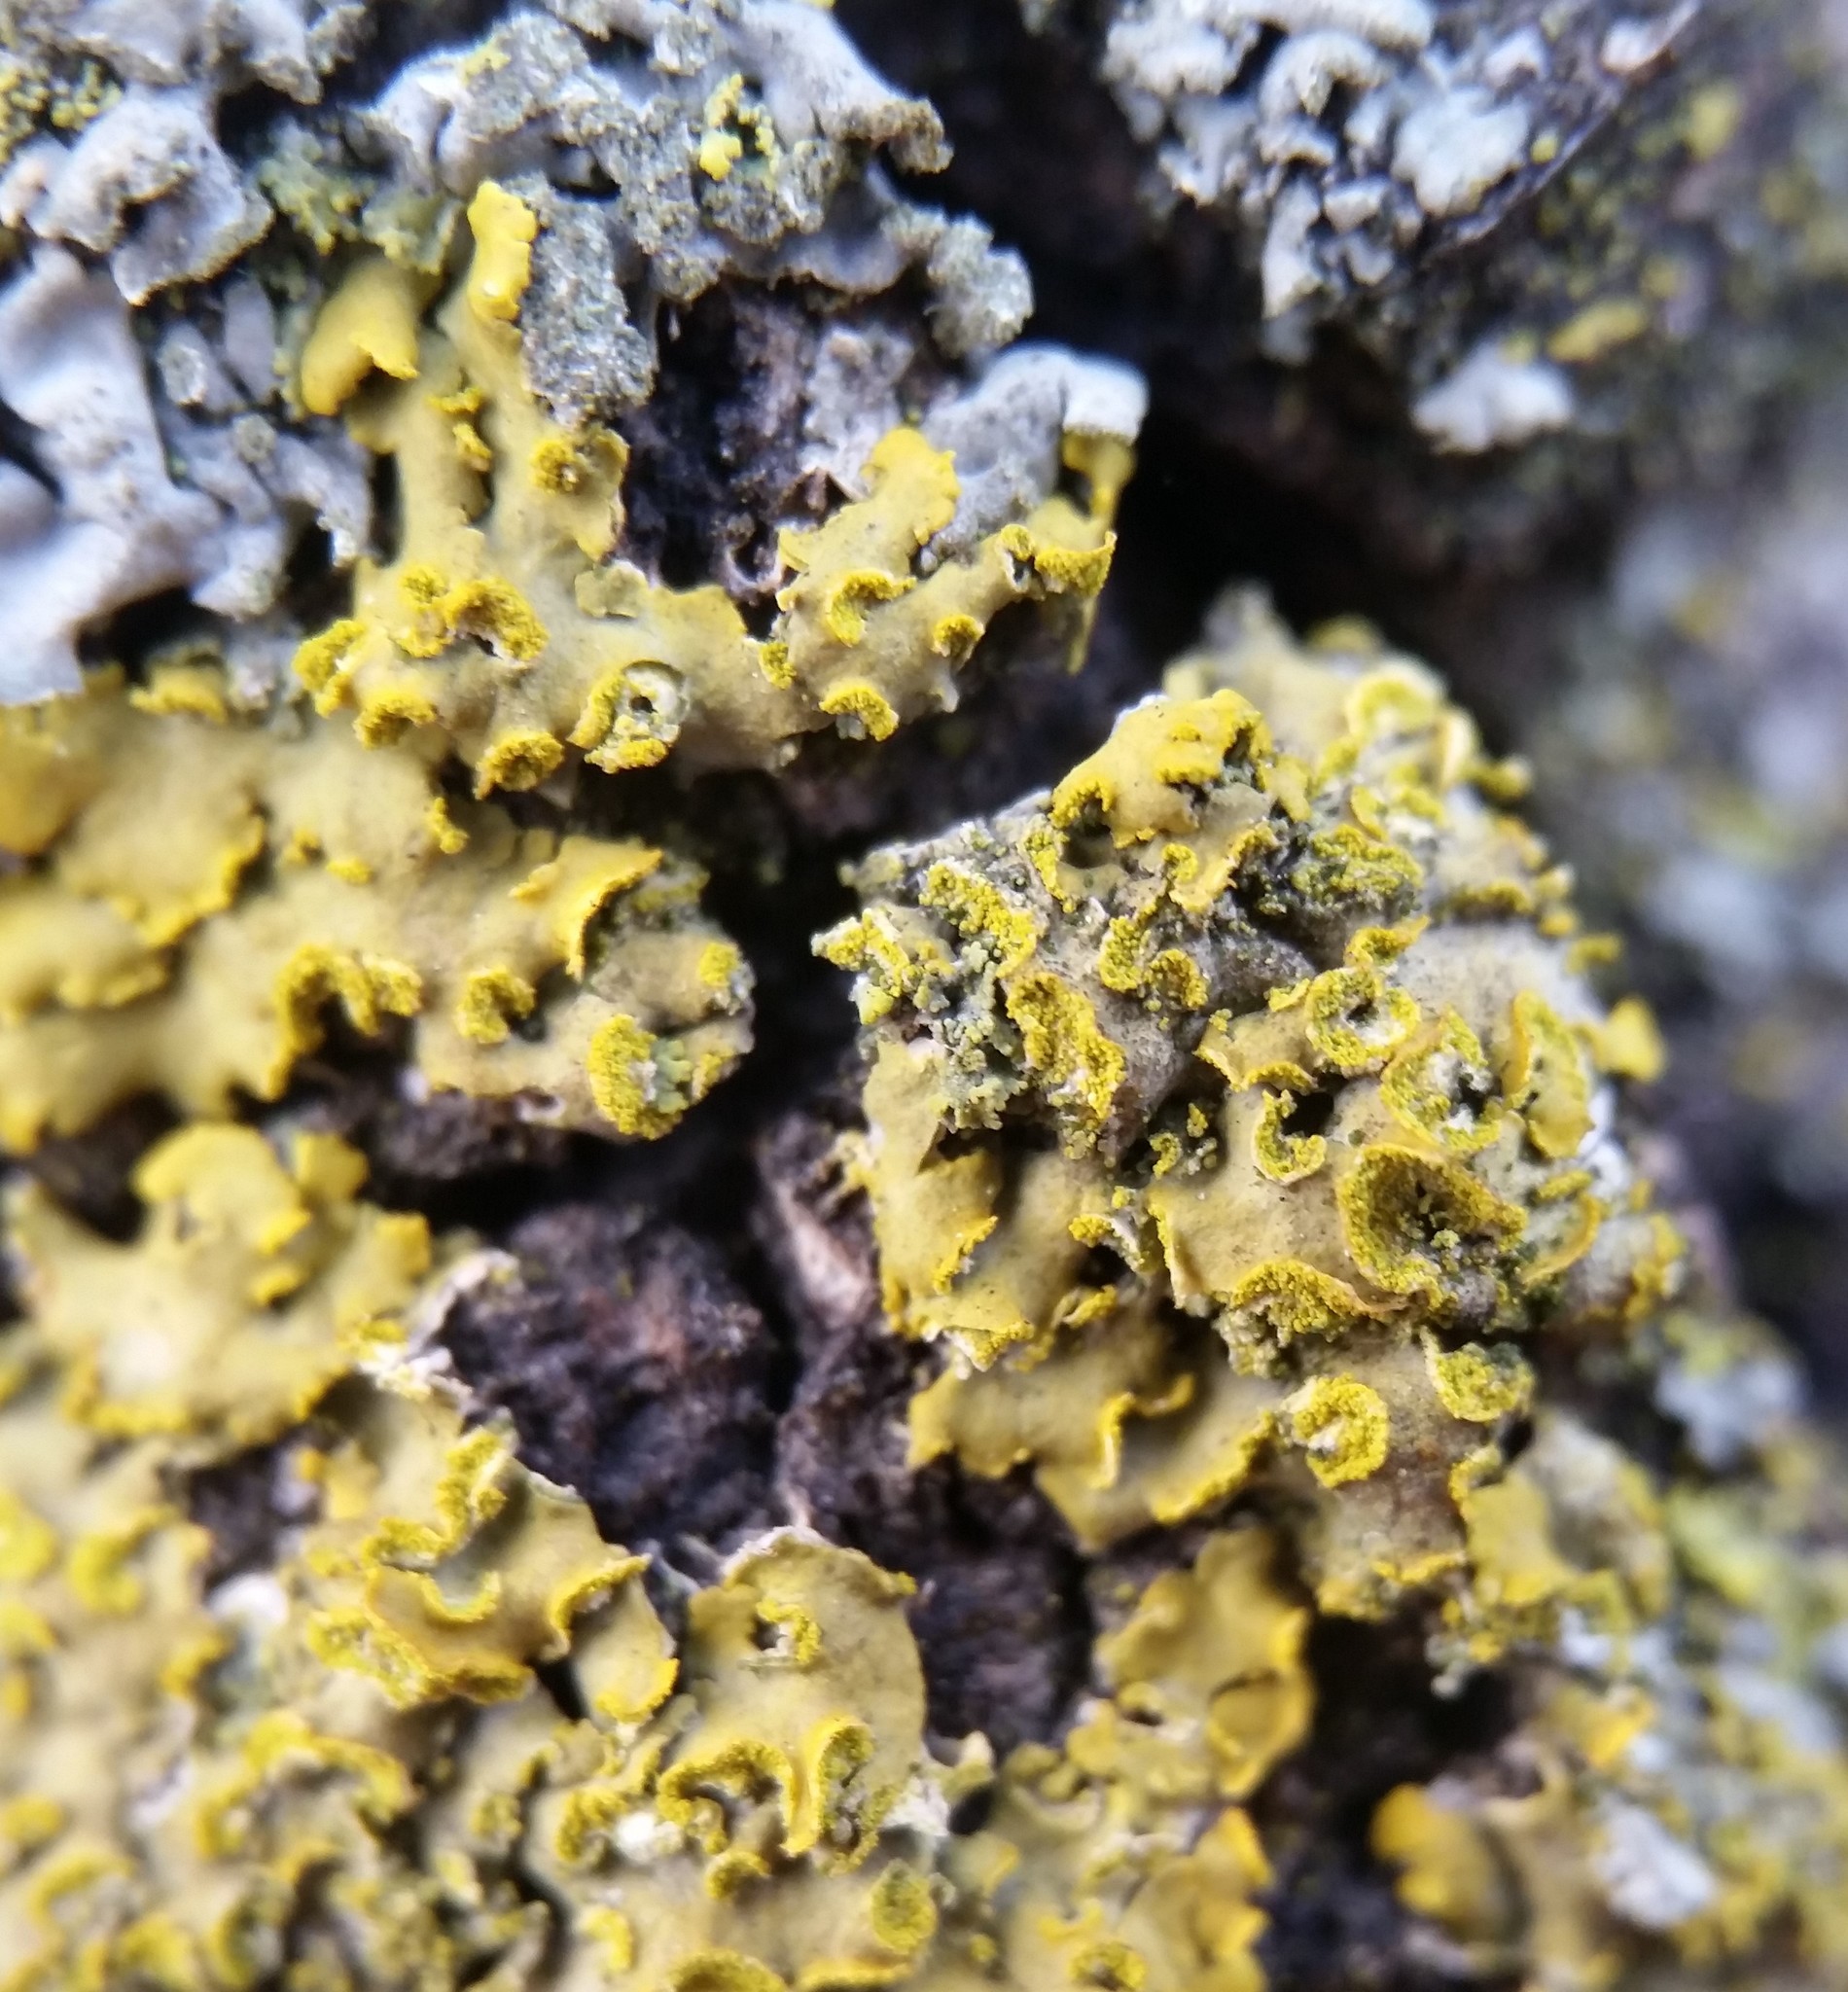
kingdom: Fungi
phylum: Ascomycota
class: Lecanoromycetes
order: Teloschistales
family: Teloschistaceae
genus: Oxneria
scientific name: Oxneria fallax
